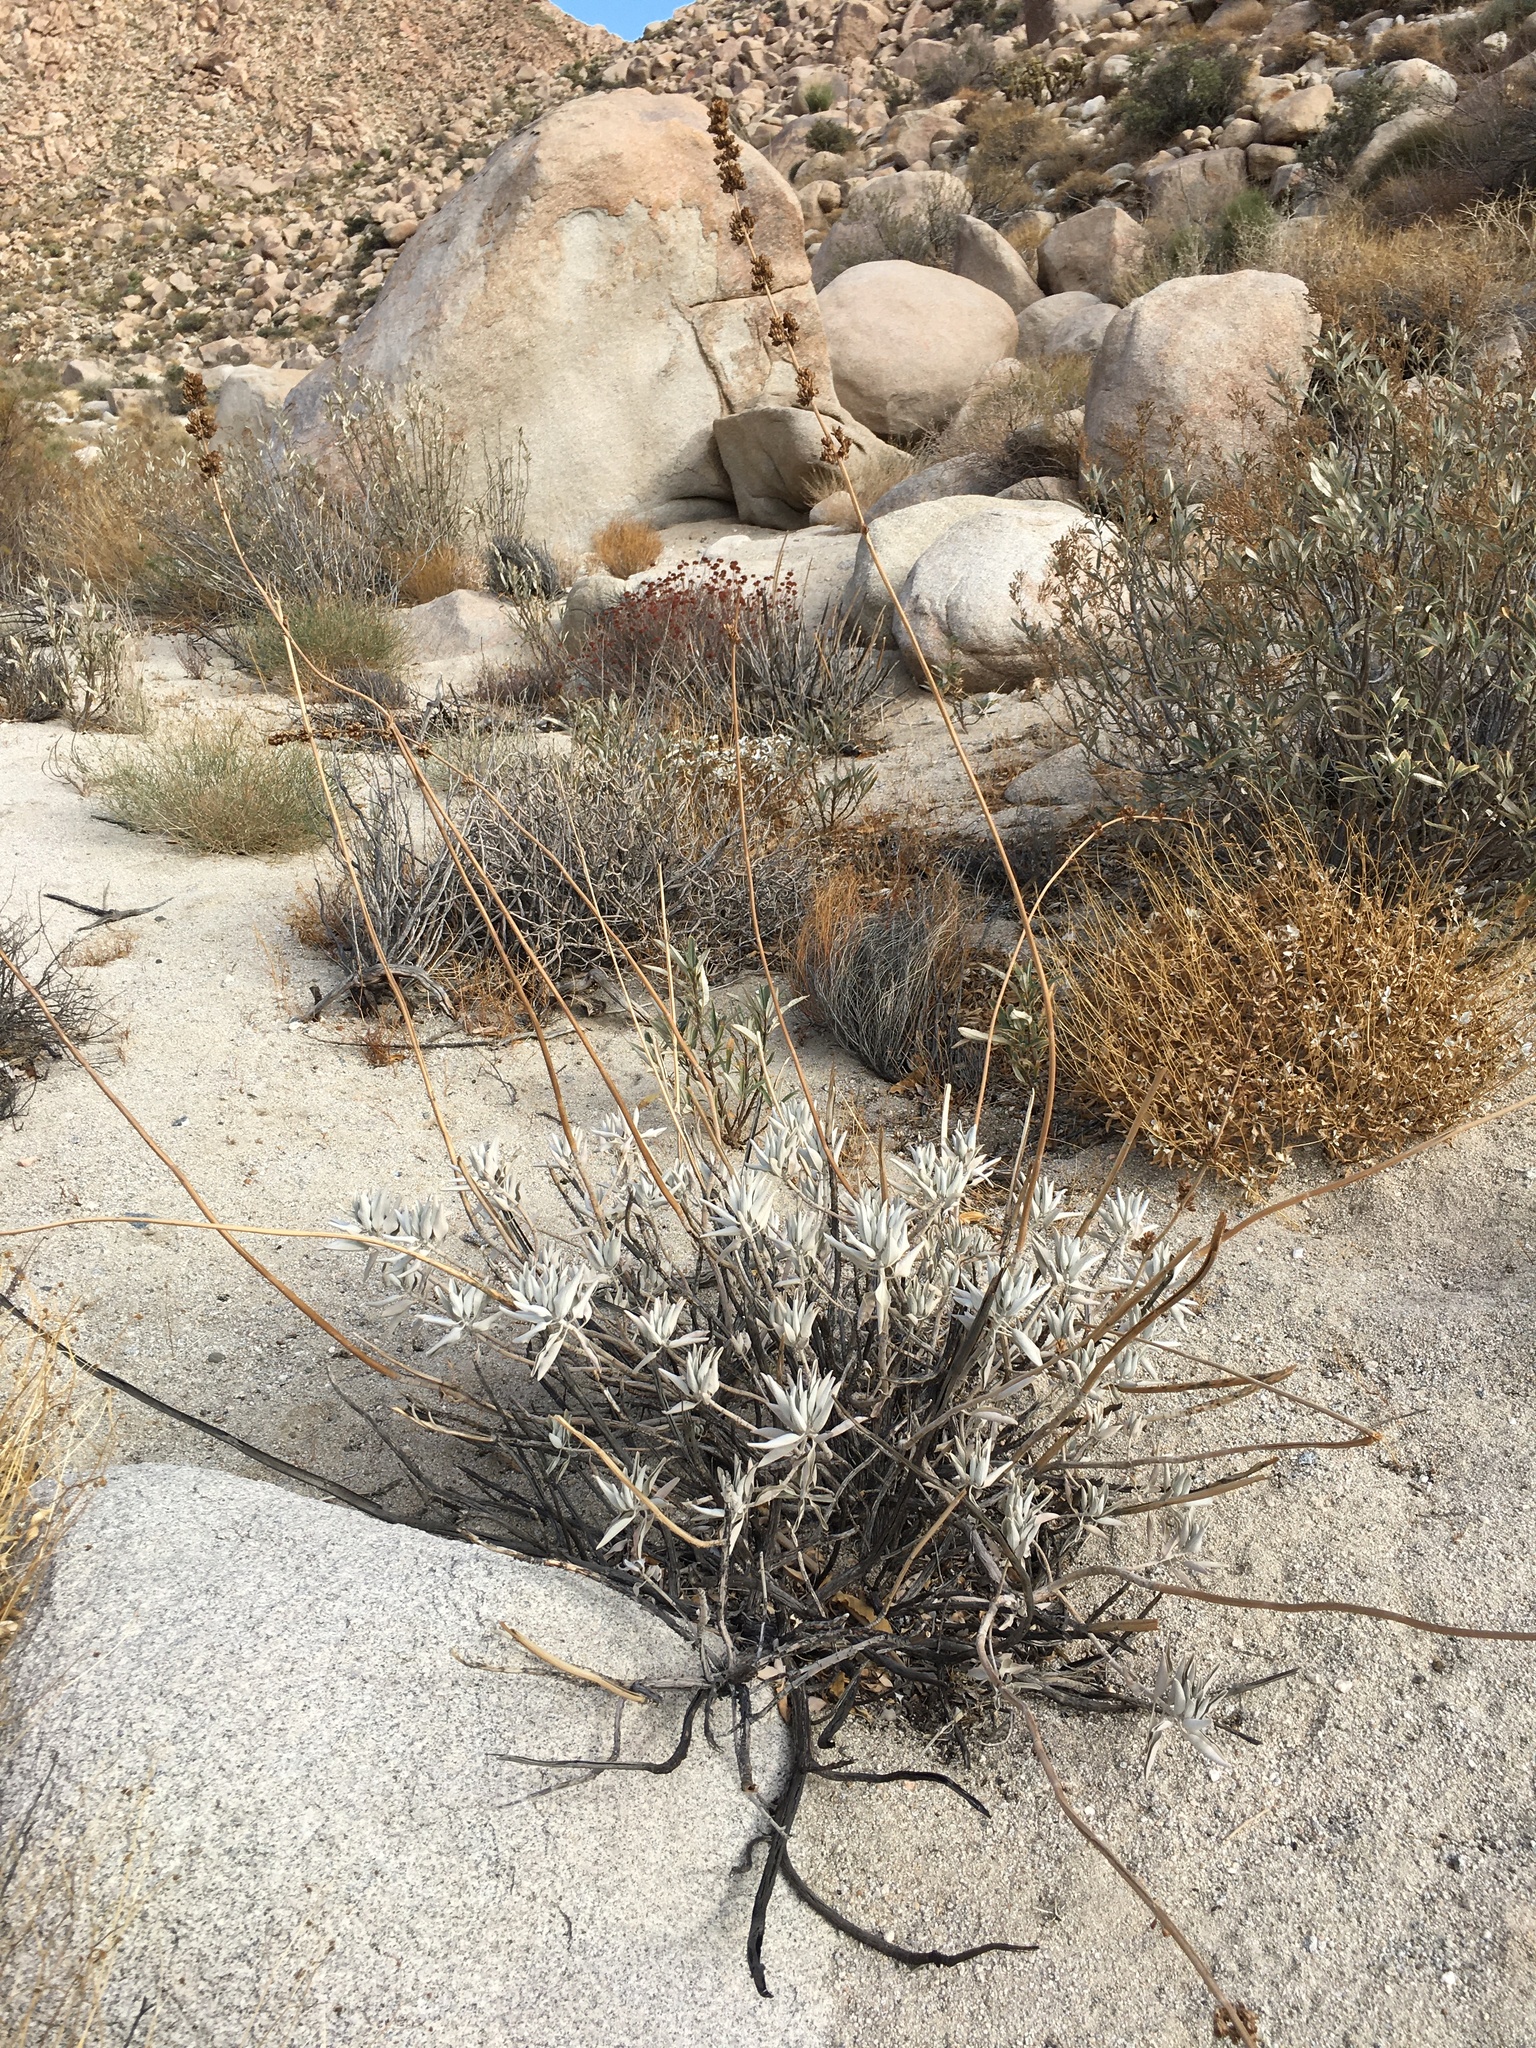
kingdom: Plantae
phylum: Tracheophyta
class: Magnoliopsida
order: Lamiales
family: Lamiaceae
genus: Salvia
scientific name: Salvia apiana
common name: White sage
